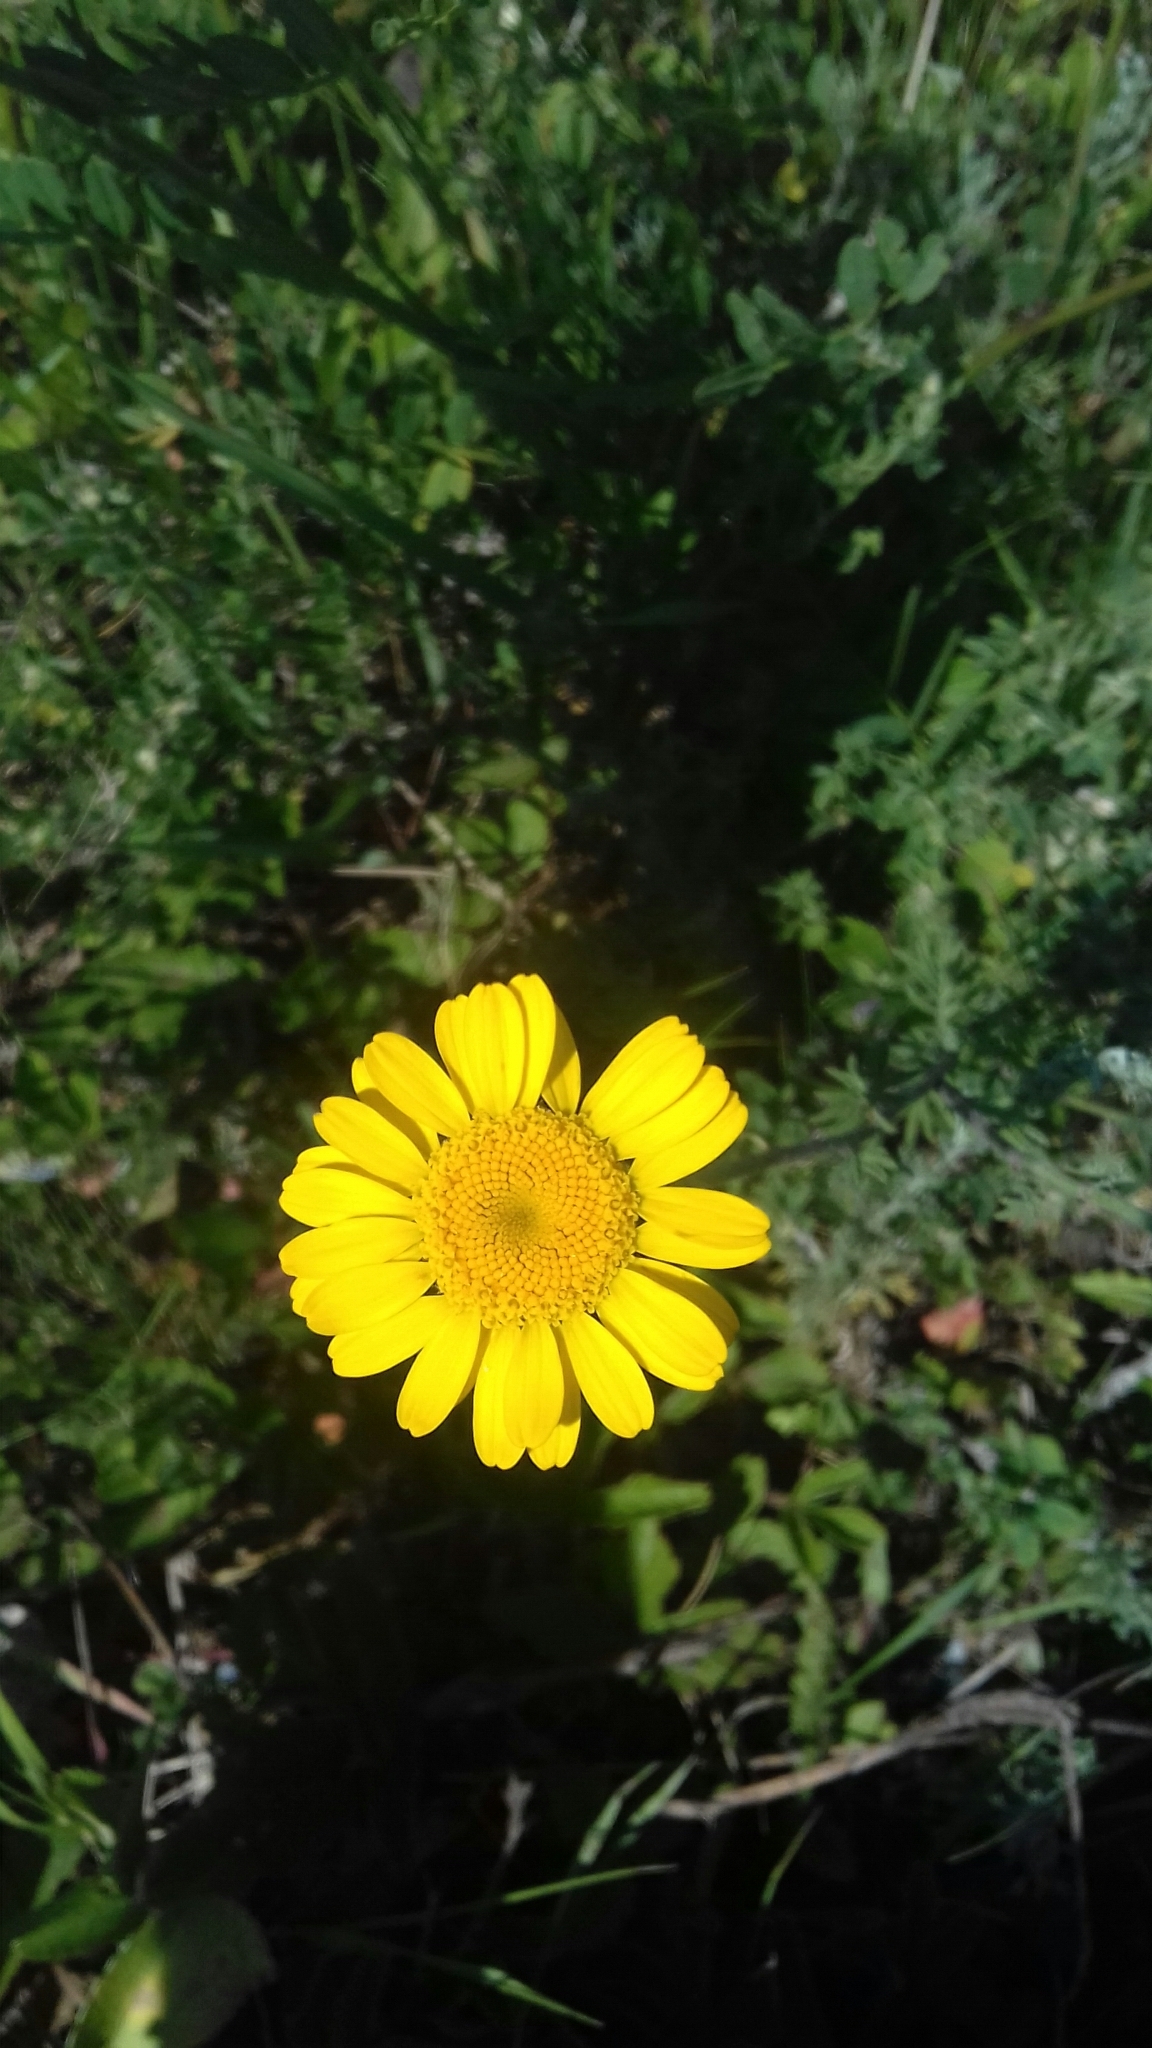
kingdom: Plantae
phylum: Tracheophyta
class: Magnoliopsida
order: Asterales
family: Asteraceae
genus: Cota
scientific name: Cota tinctoria
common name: Golden chamomile
